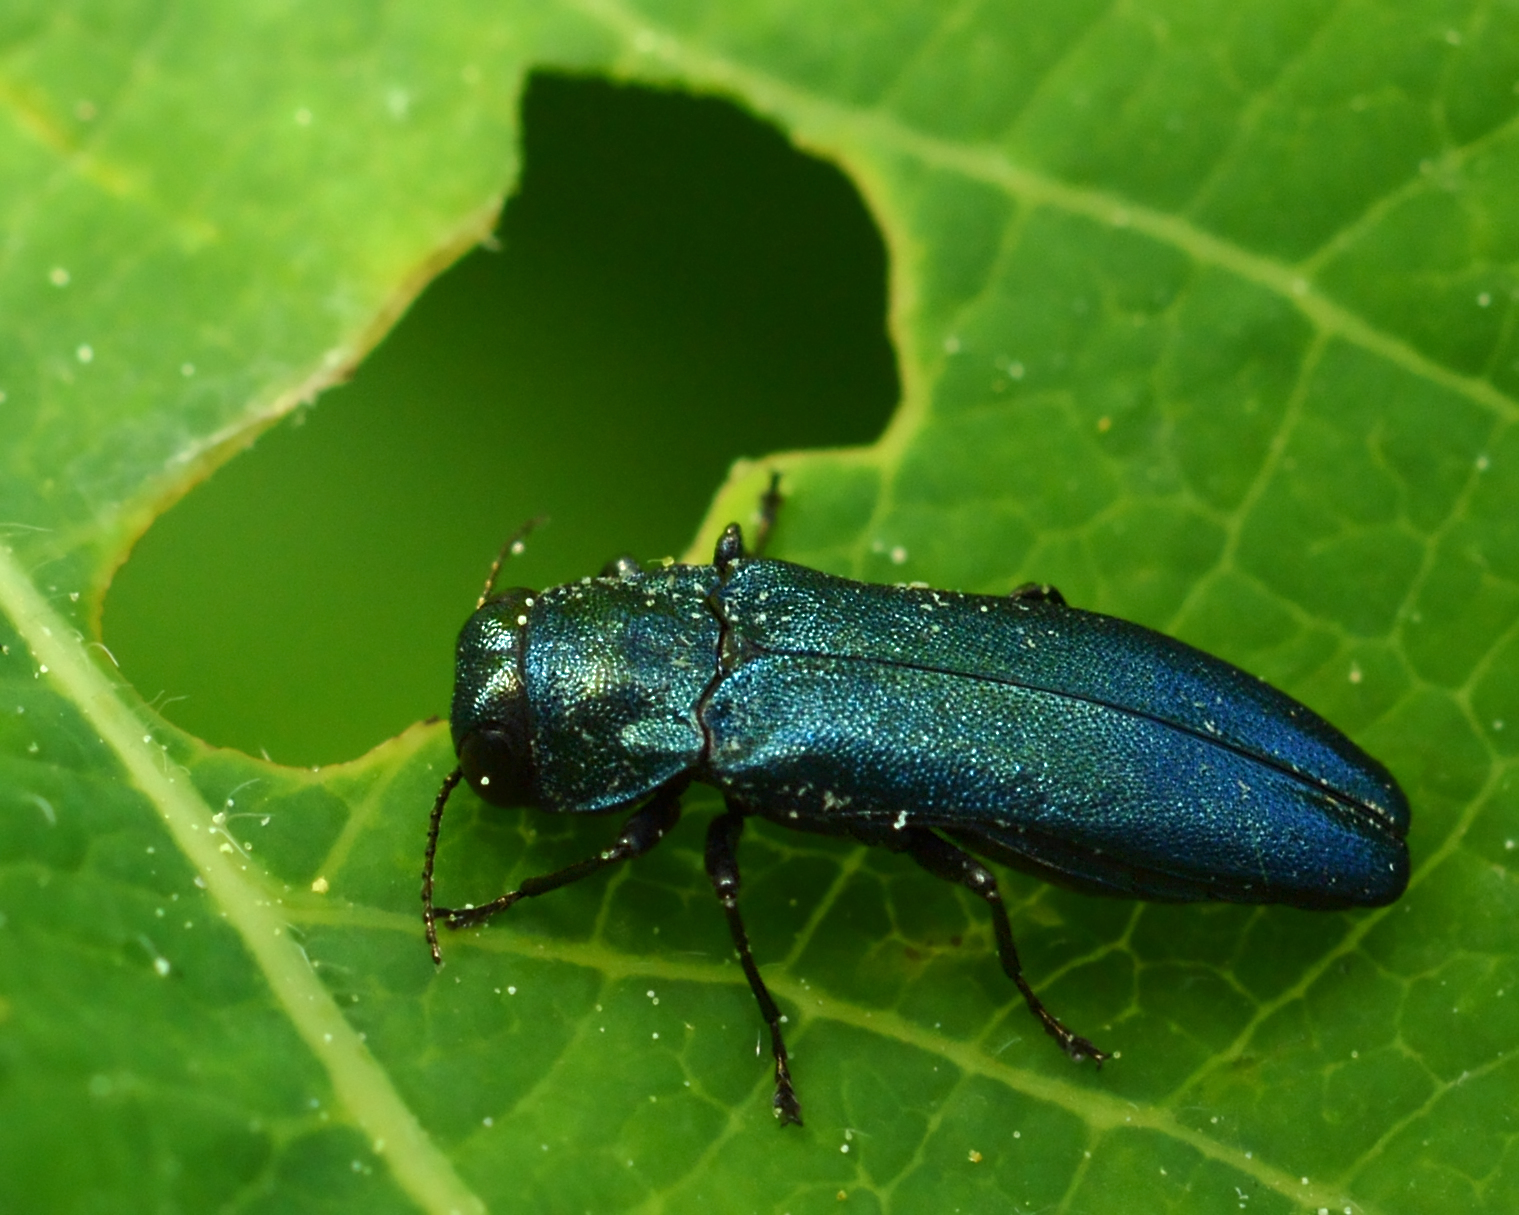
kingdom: Animalia
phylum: Arthropoda
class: Insecta
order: Coleoptera
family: Buprestidae
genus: Agrilus
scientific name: Agrilus cyanescens
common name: Bluish borer beetle
